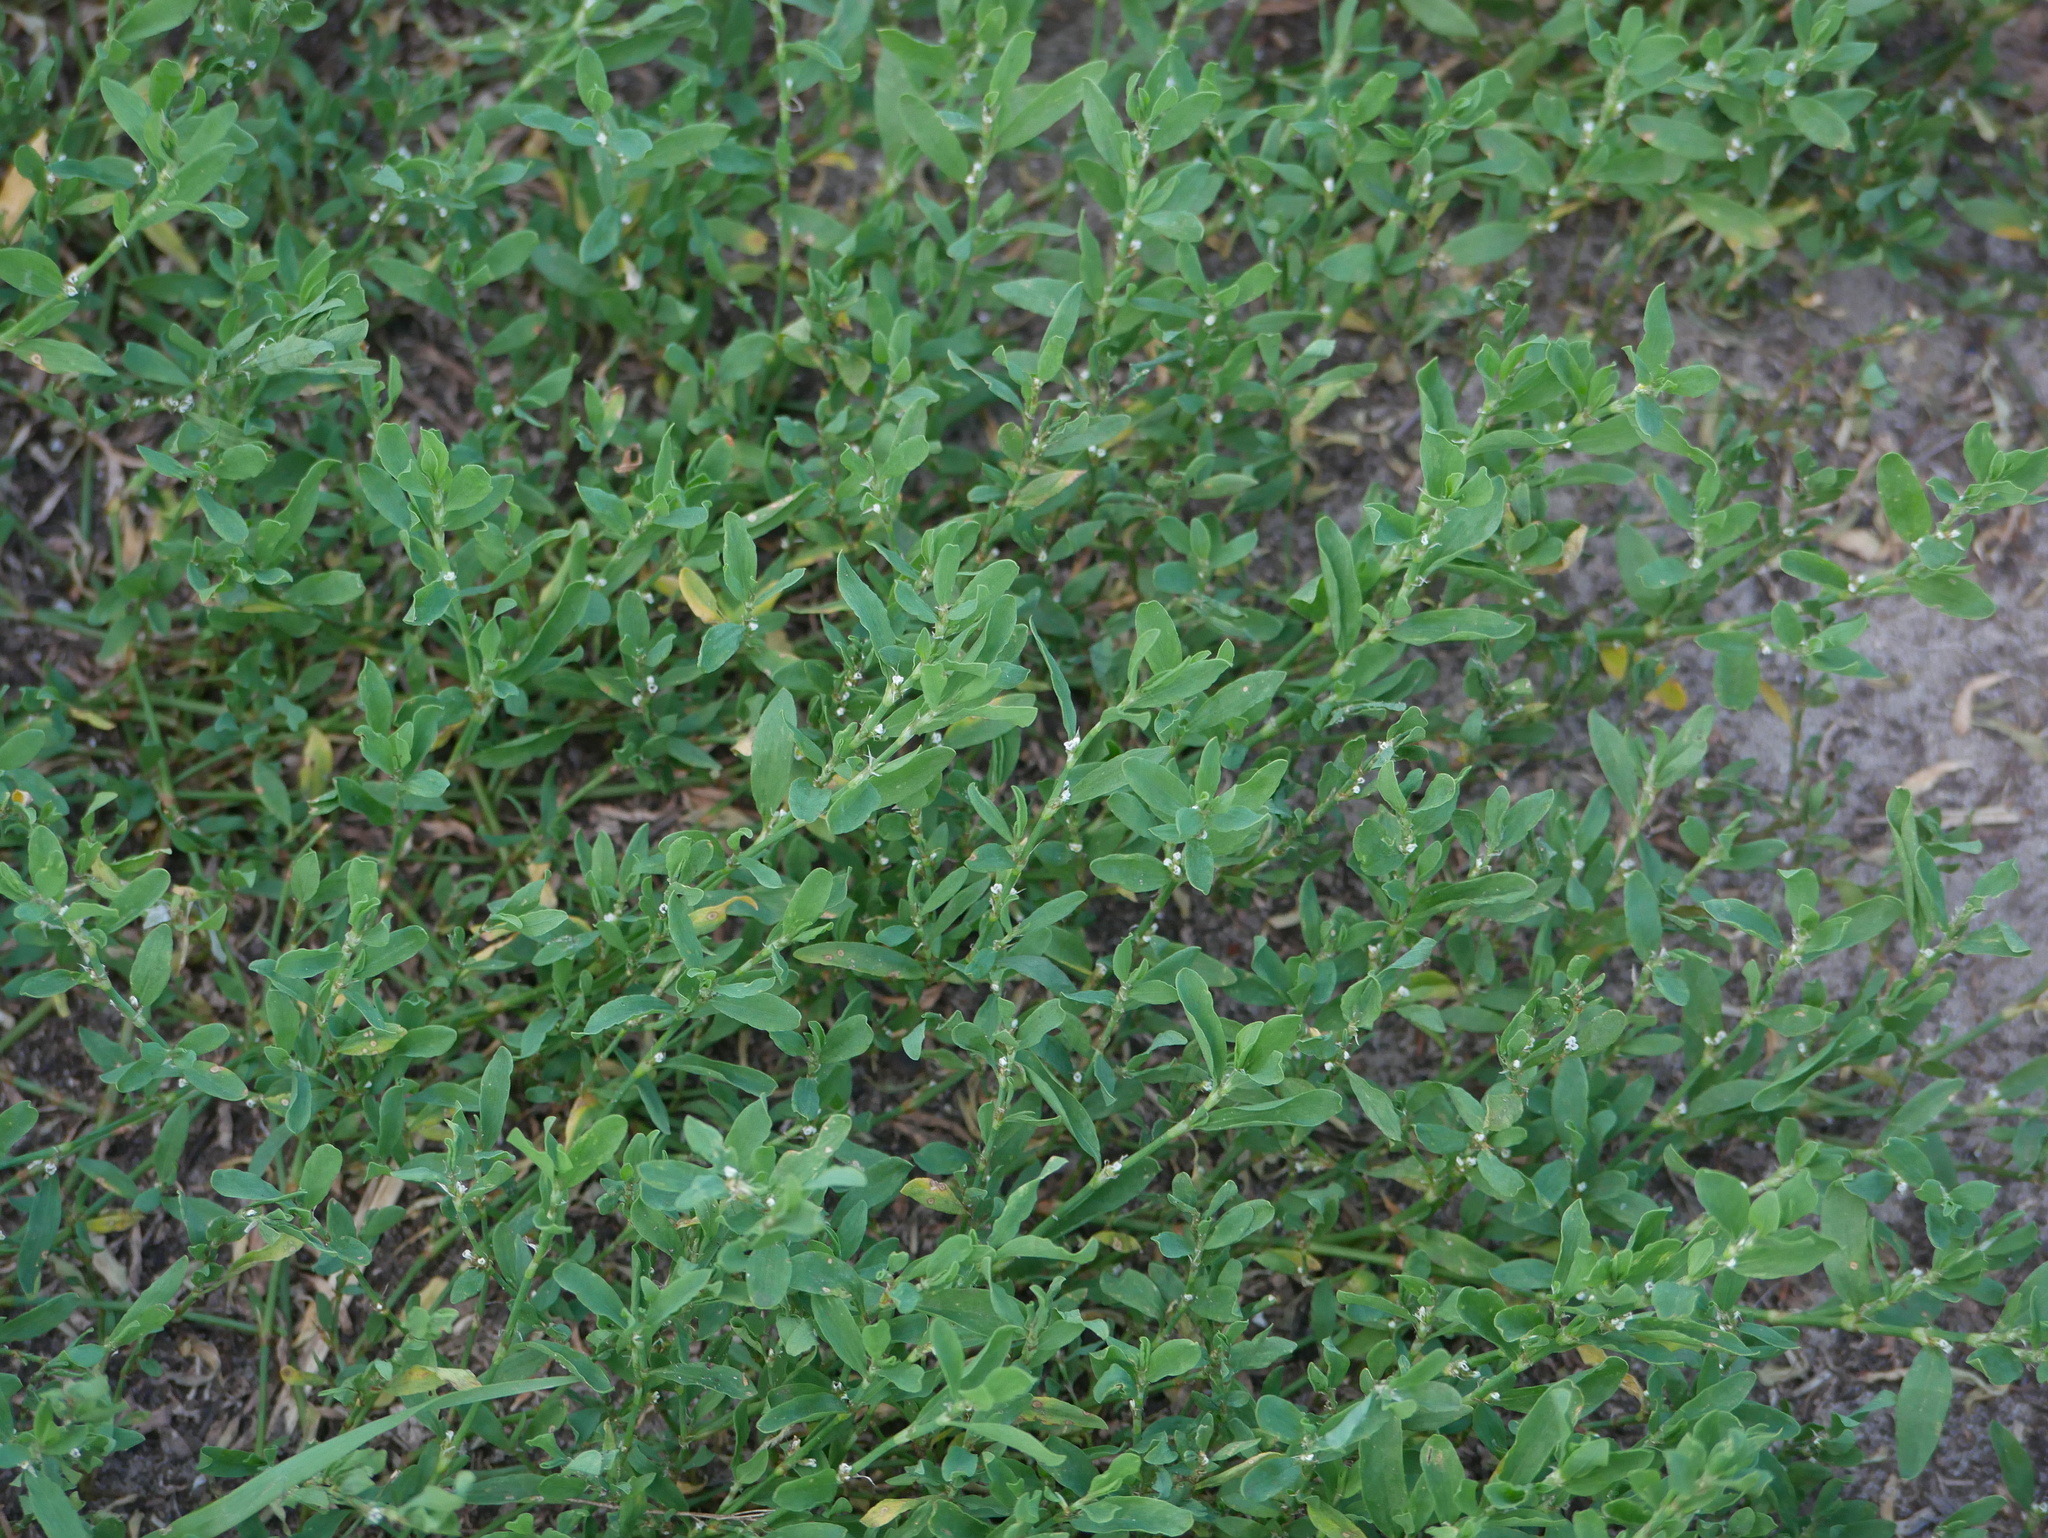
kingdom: Plantae
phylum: Tracheophyta
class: Magnoliopsida
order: Caryophyllales
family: Polygonaceae
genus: Polygonum
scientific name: Polygonum aviculare
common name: Prostrate knotweed
